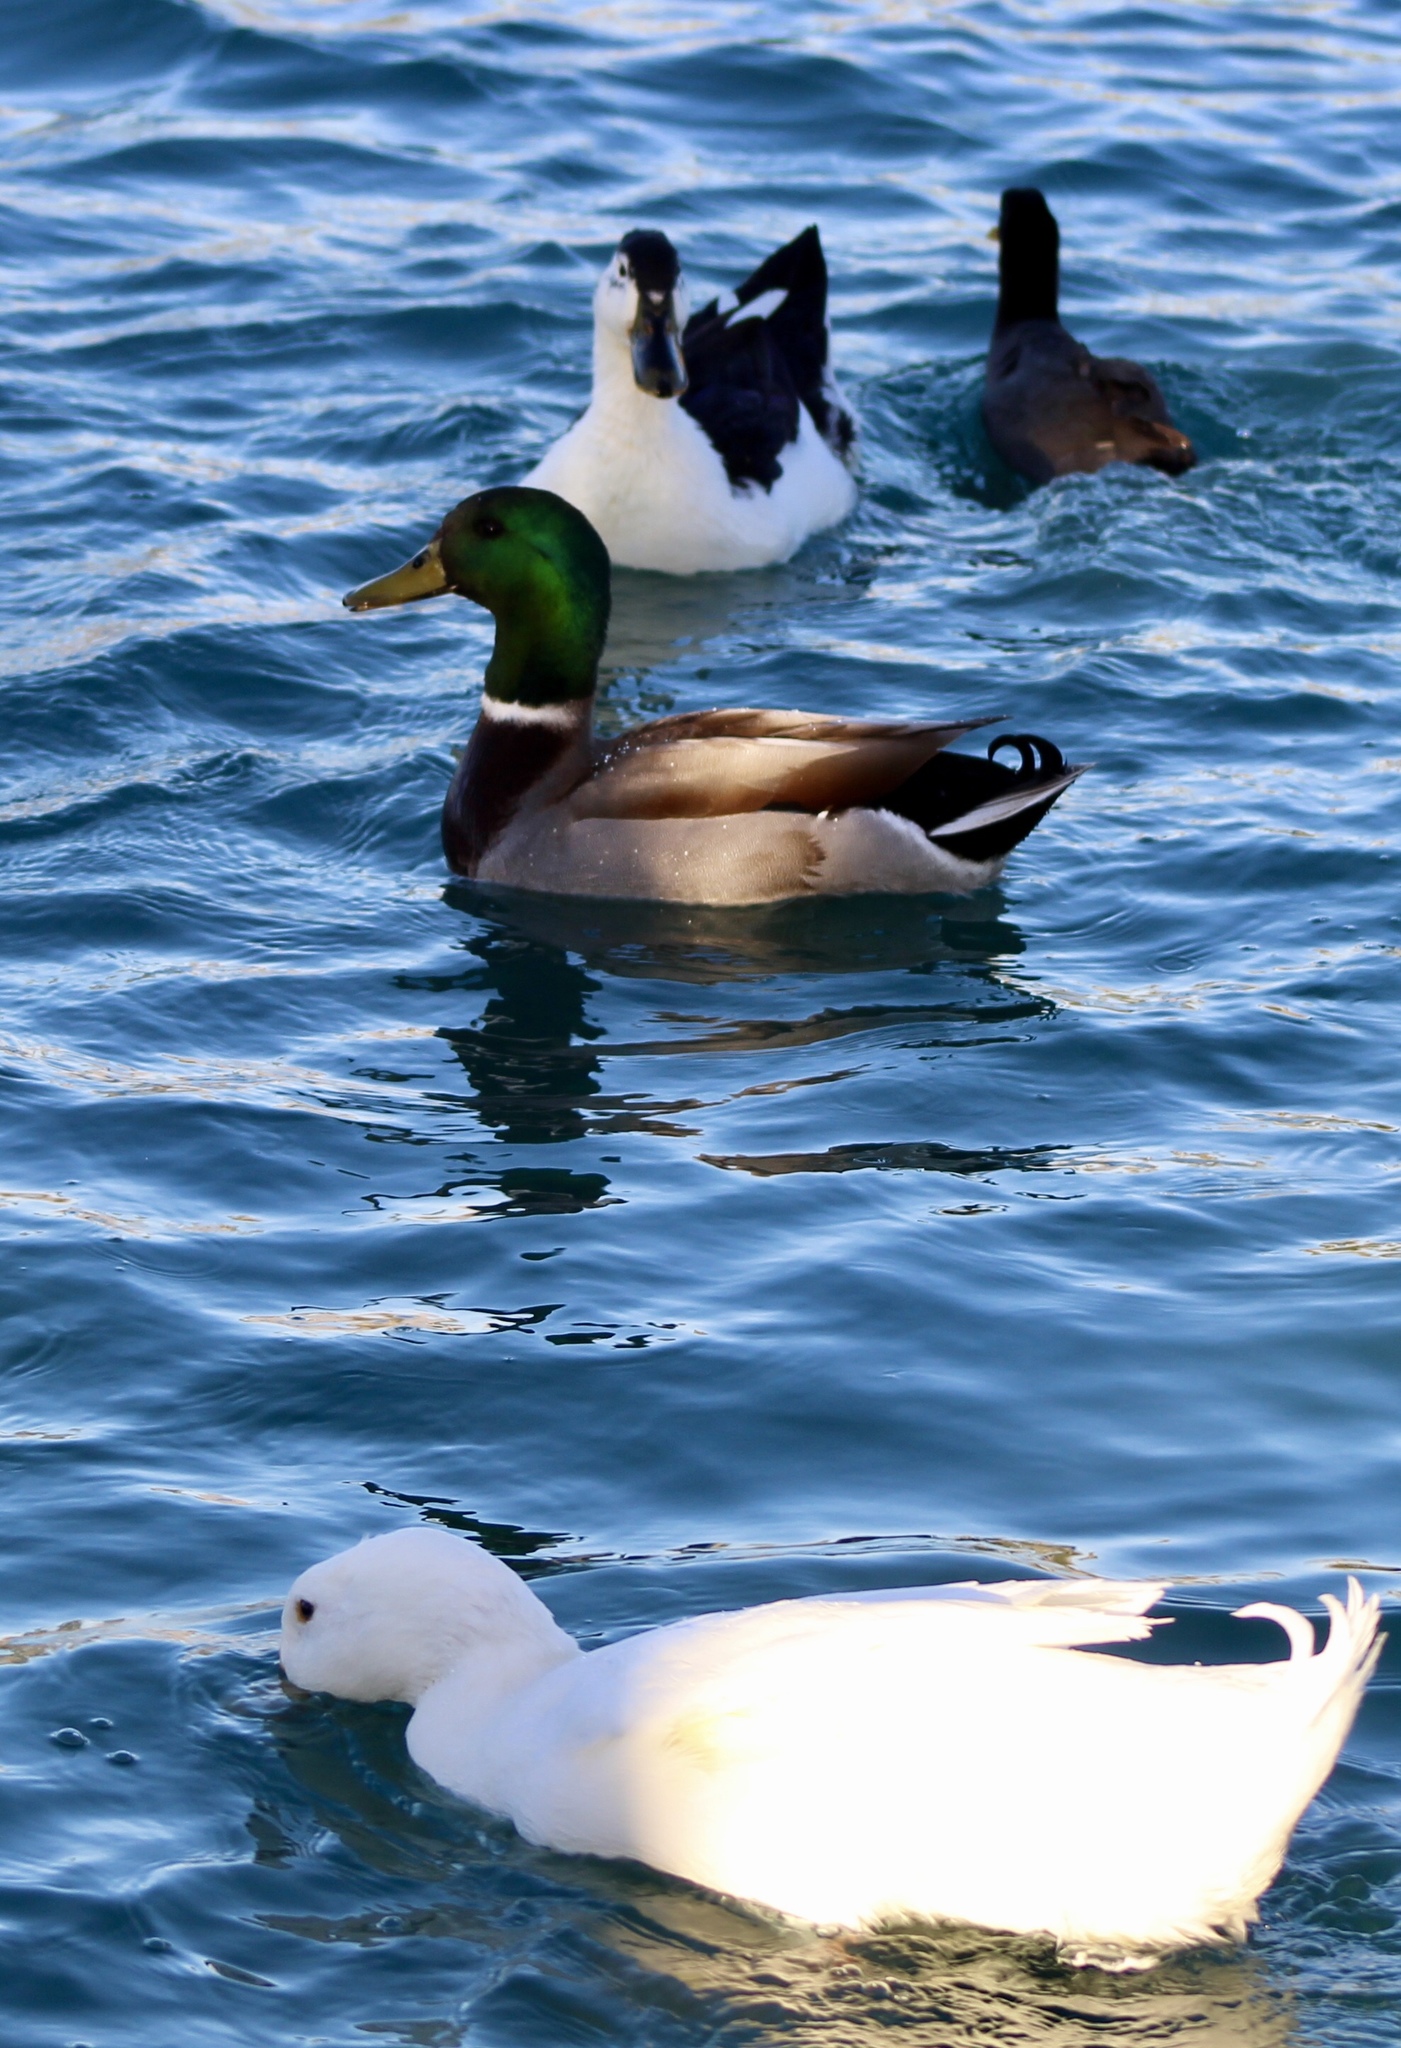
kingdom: Animalia
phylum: Chordata
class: Aves
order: Anseriformes
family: Anatidae
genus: Anas
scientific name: Anas platyrhynchos
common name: Mallard
